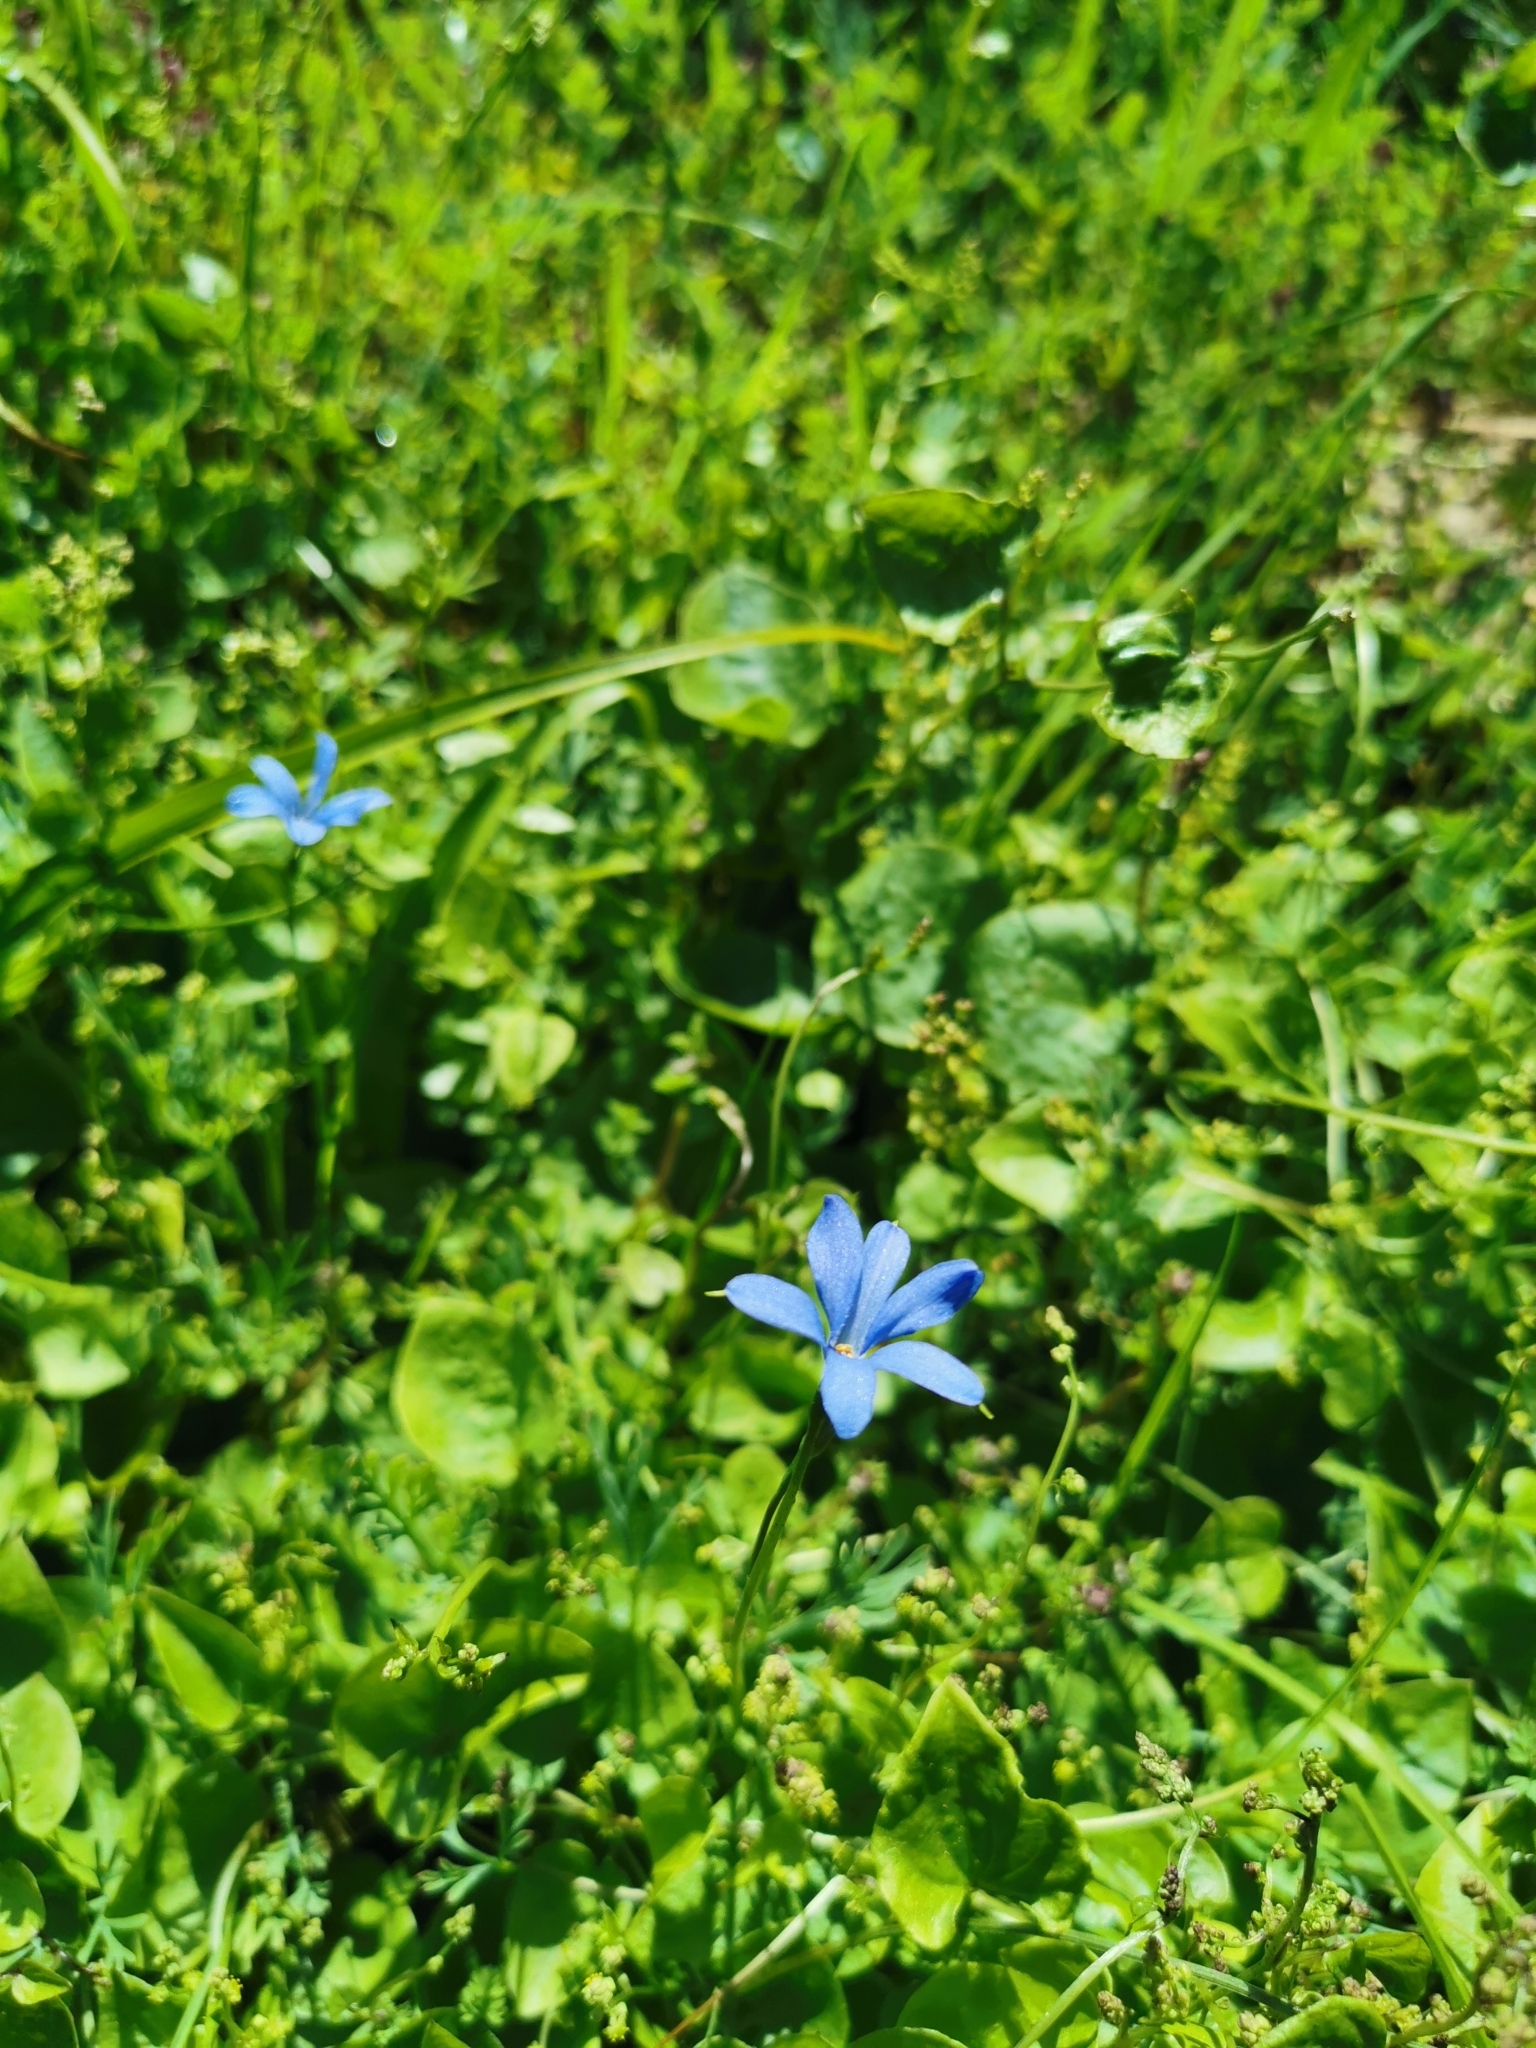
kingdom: Plantae
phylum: Tracheophyta
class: Liliopsida
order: Asparagales
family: Tecophilaeaceae
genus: Tecophilaea
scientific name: Tecophilaea violiflora
